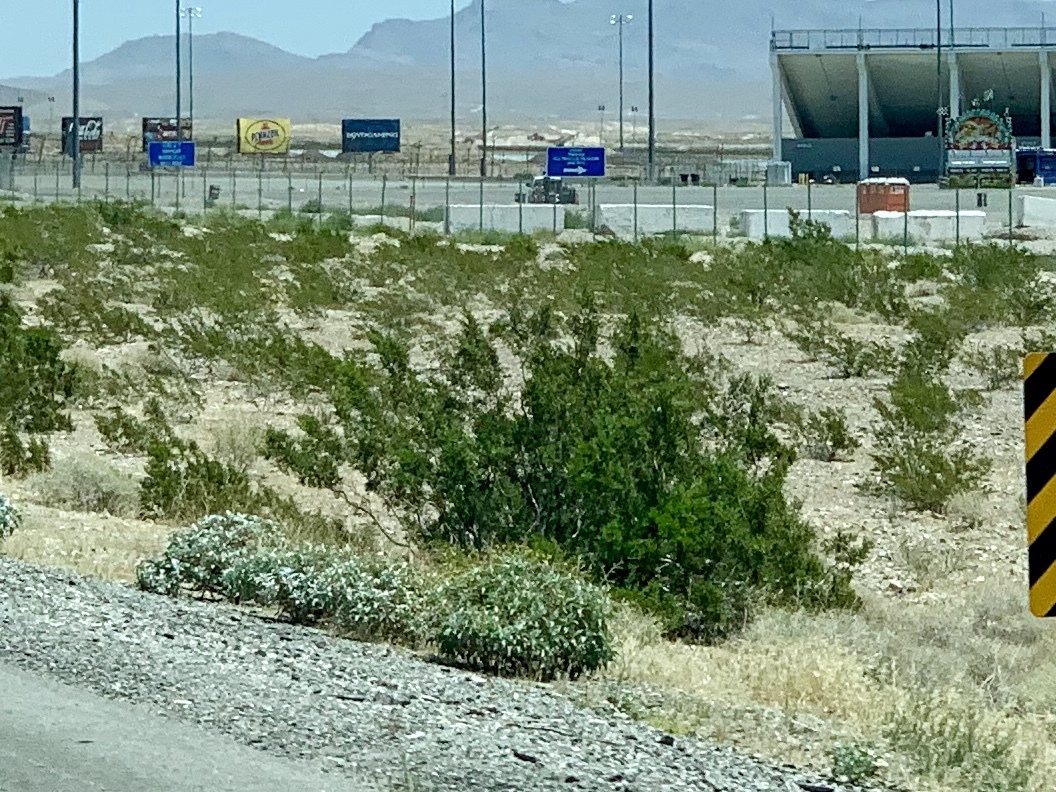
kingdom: Plantae
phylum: Tracheophyta
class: Magnoliopsida
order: Zygophyllales
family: Zygophyllaceae
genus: Larrea
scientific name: Larrea tridentata
